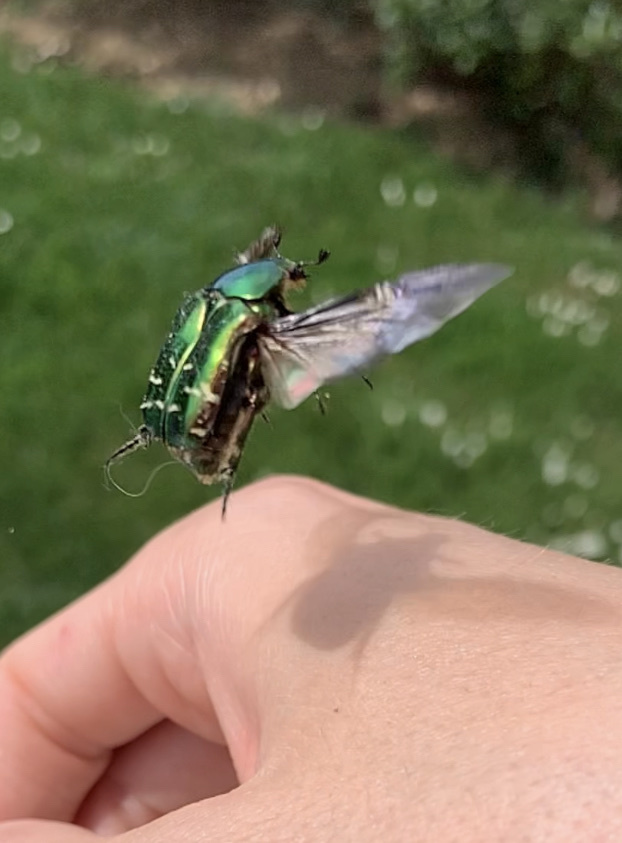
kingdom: Animalia
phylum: Arthropoda
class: Insecta
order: Coleoptera
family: Scarabaeidae
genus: Cetonia
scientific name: Cetonia aurata
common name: Rose chafer
